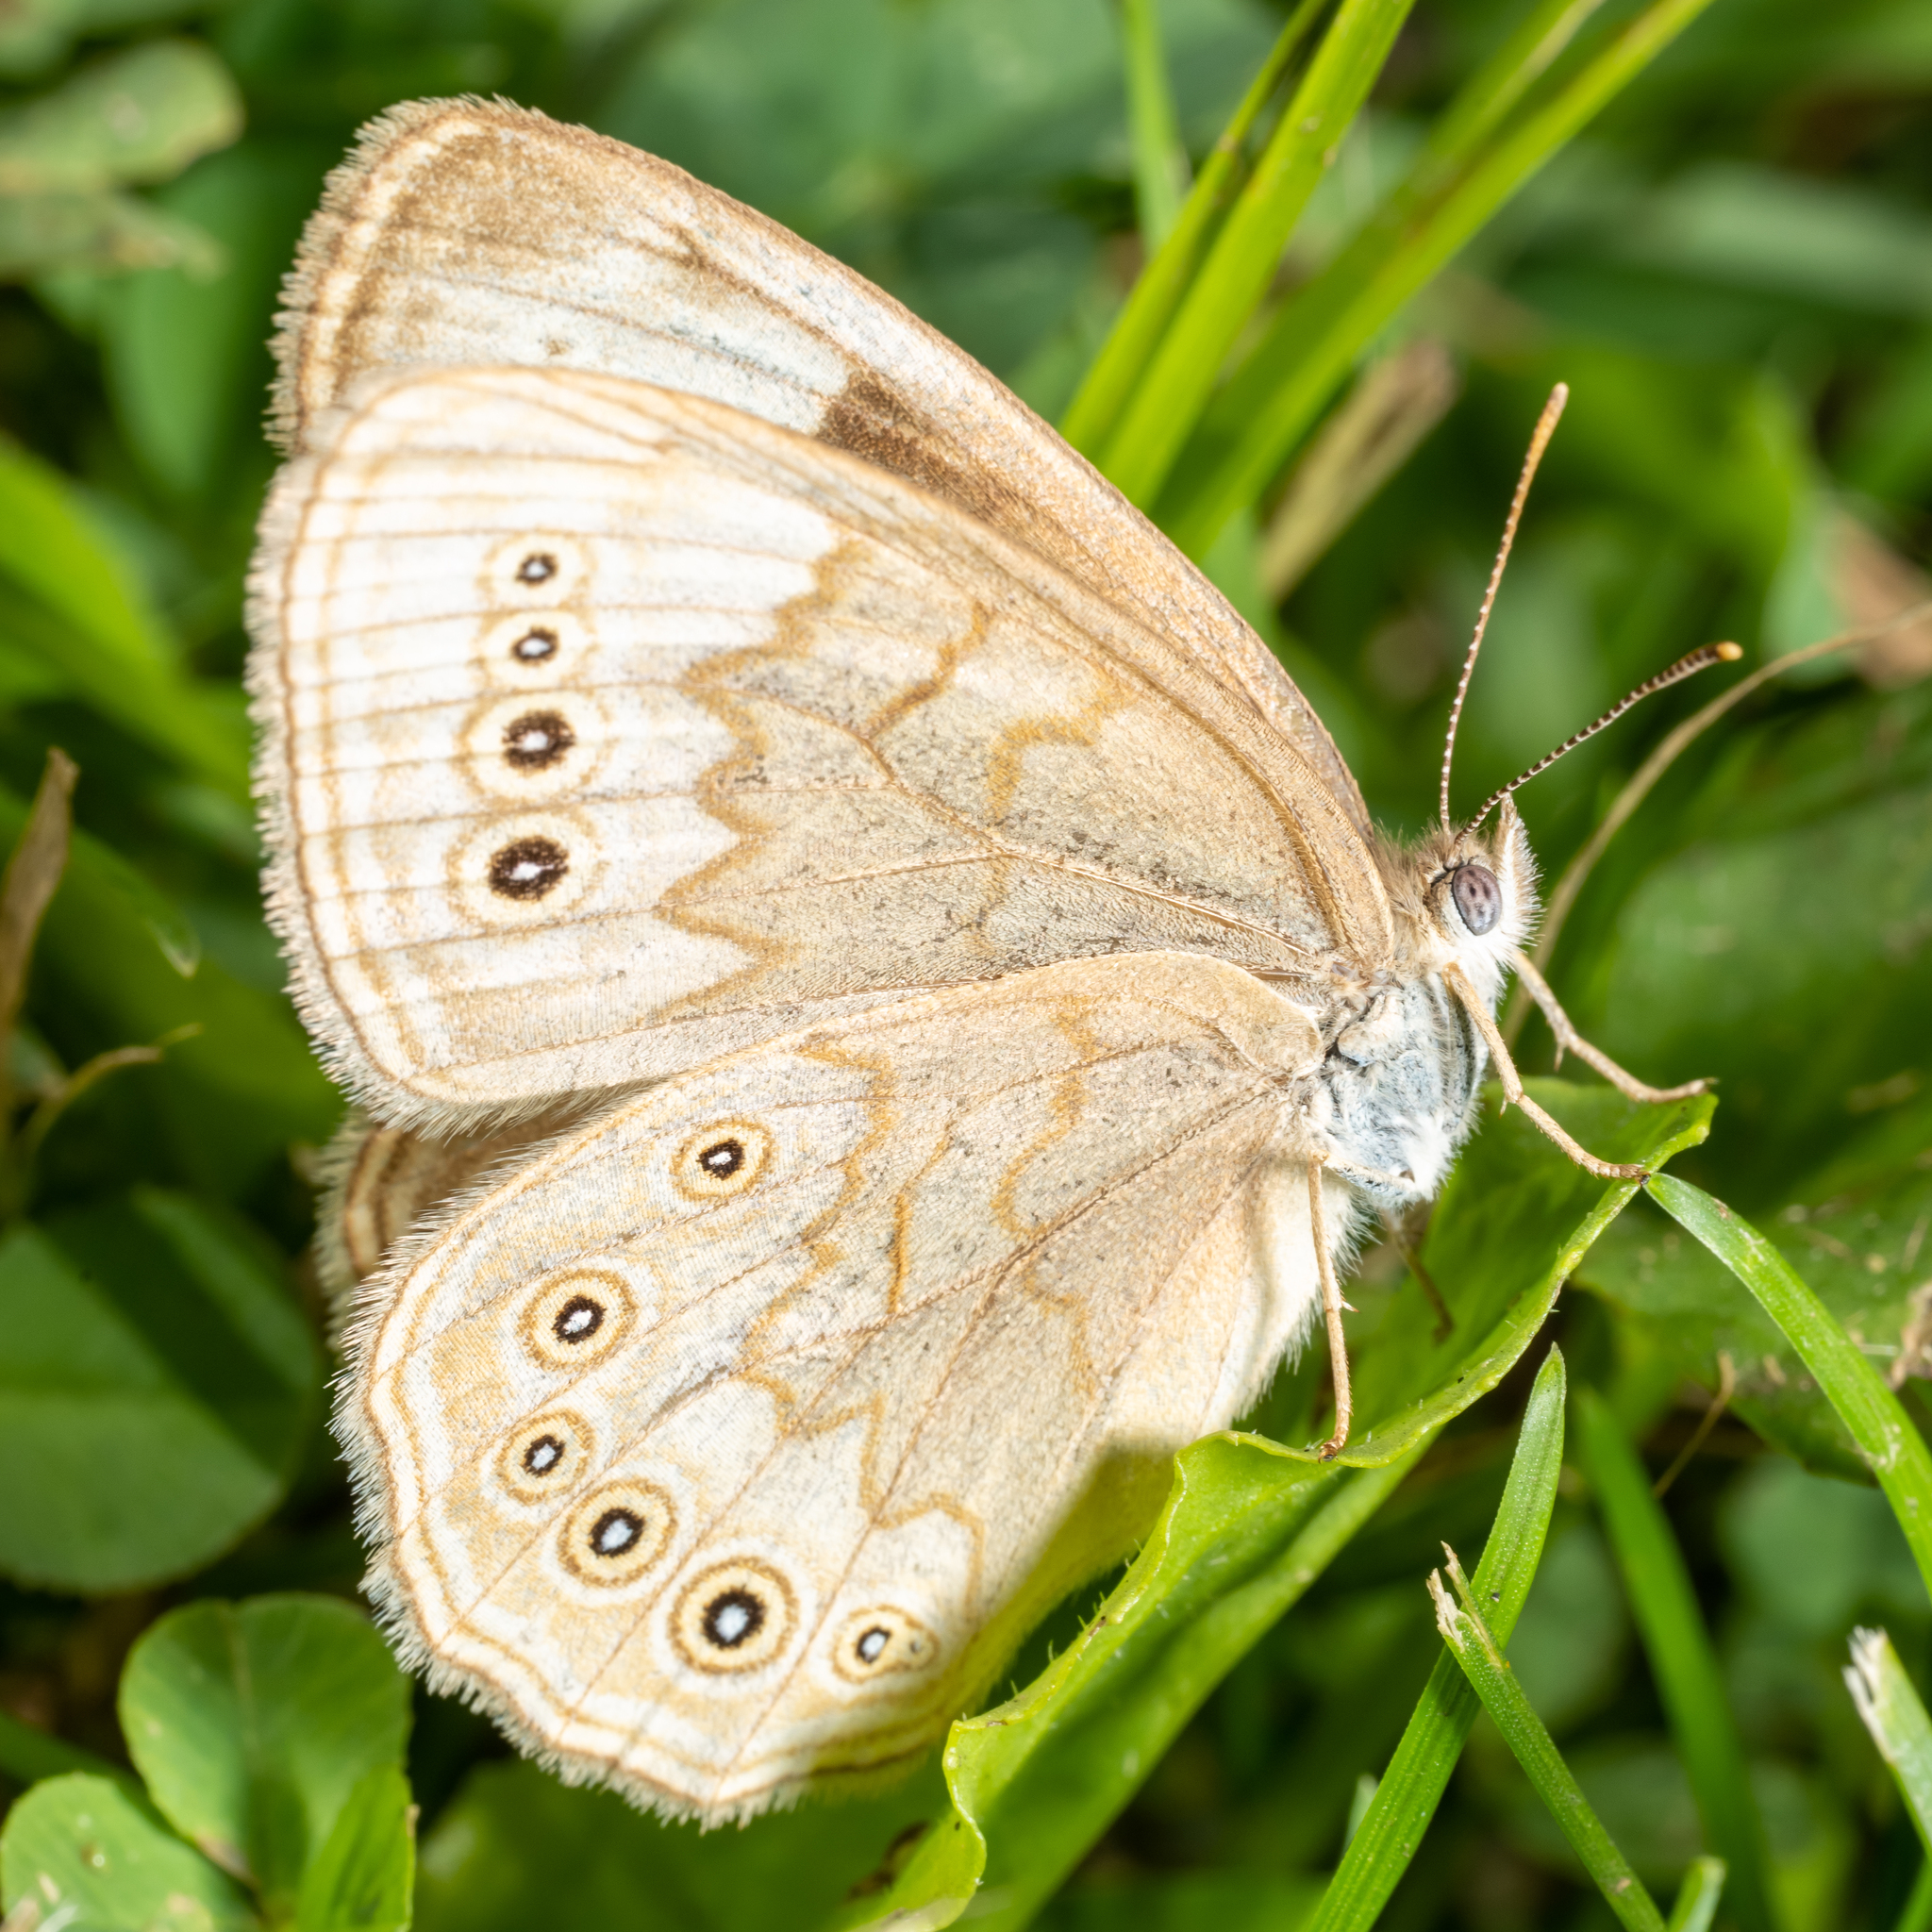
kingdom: Animalia
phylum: Arthropoda
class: Insecta
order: Lepidoptera
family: Nymphalidae
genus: Lethe
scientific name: Lethe eurydice
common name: Eyed brown
